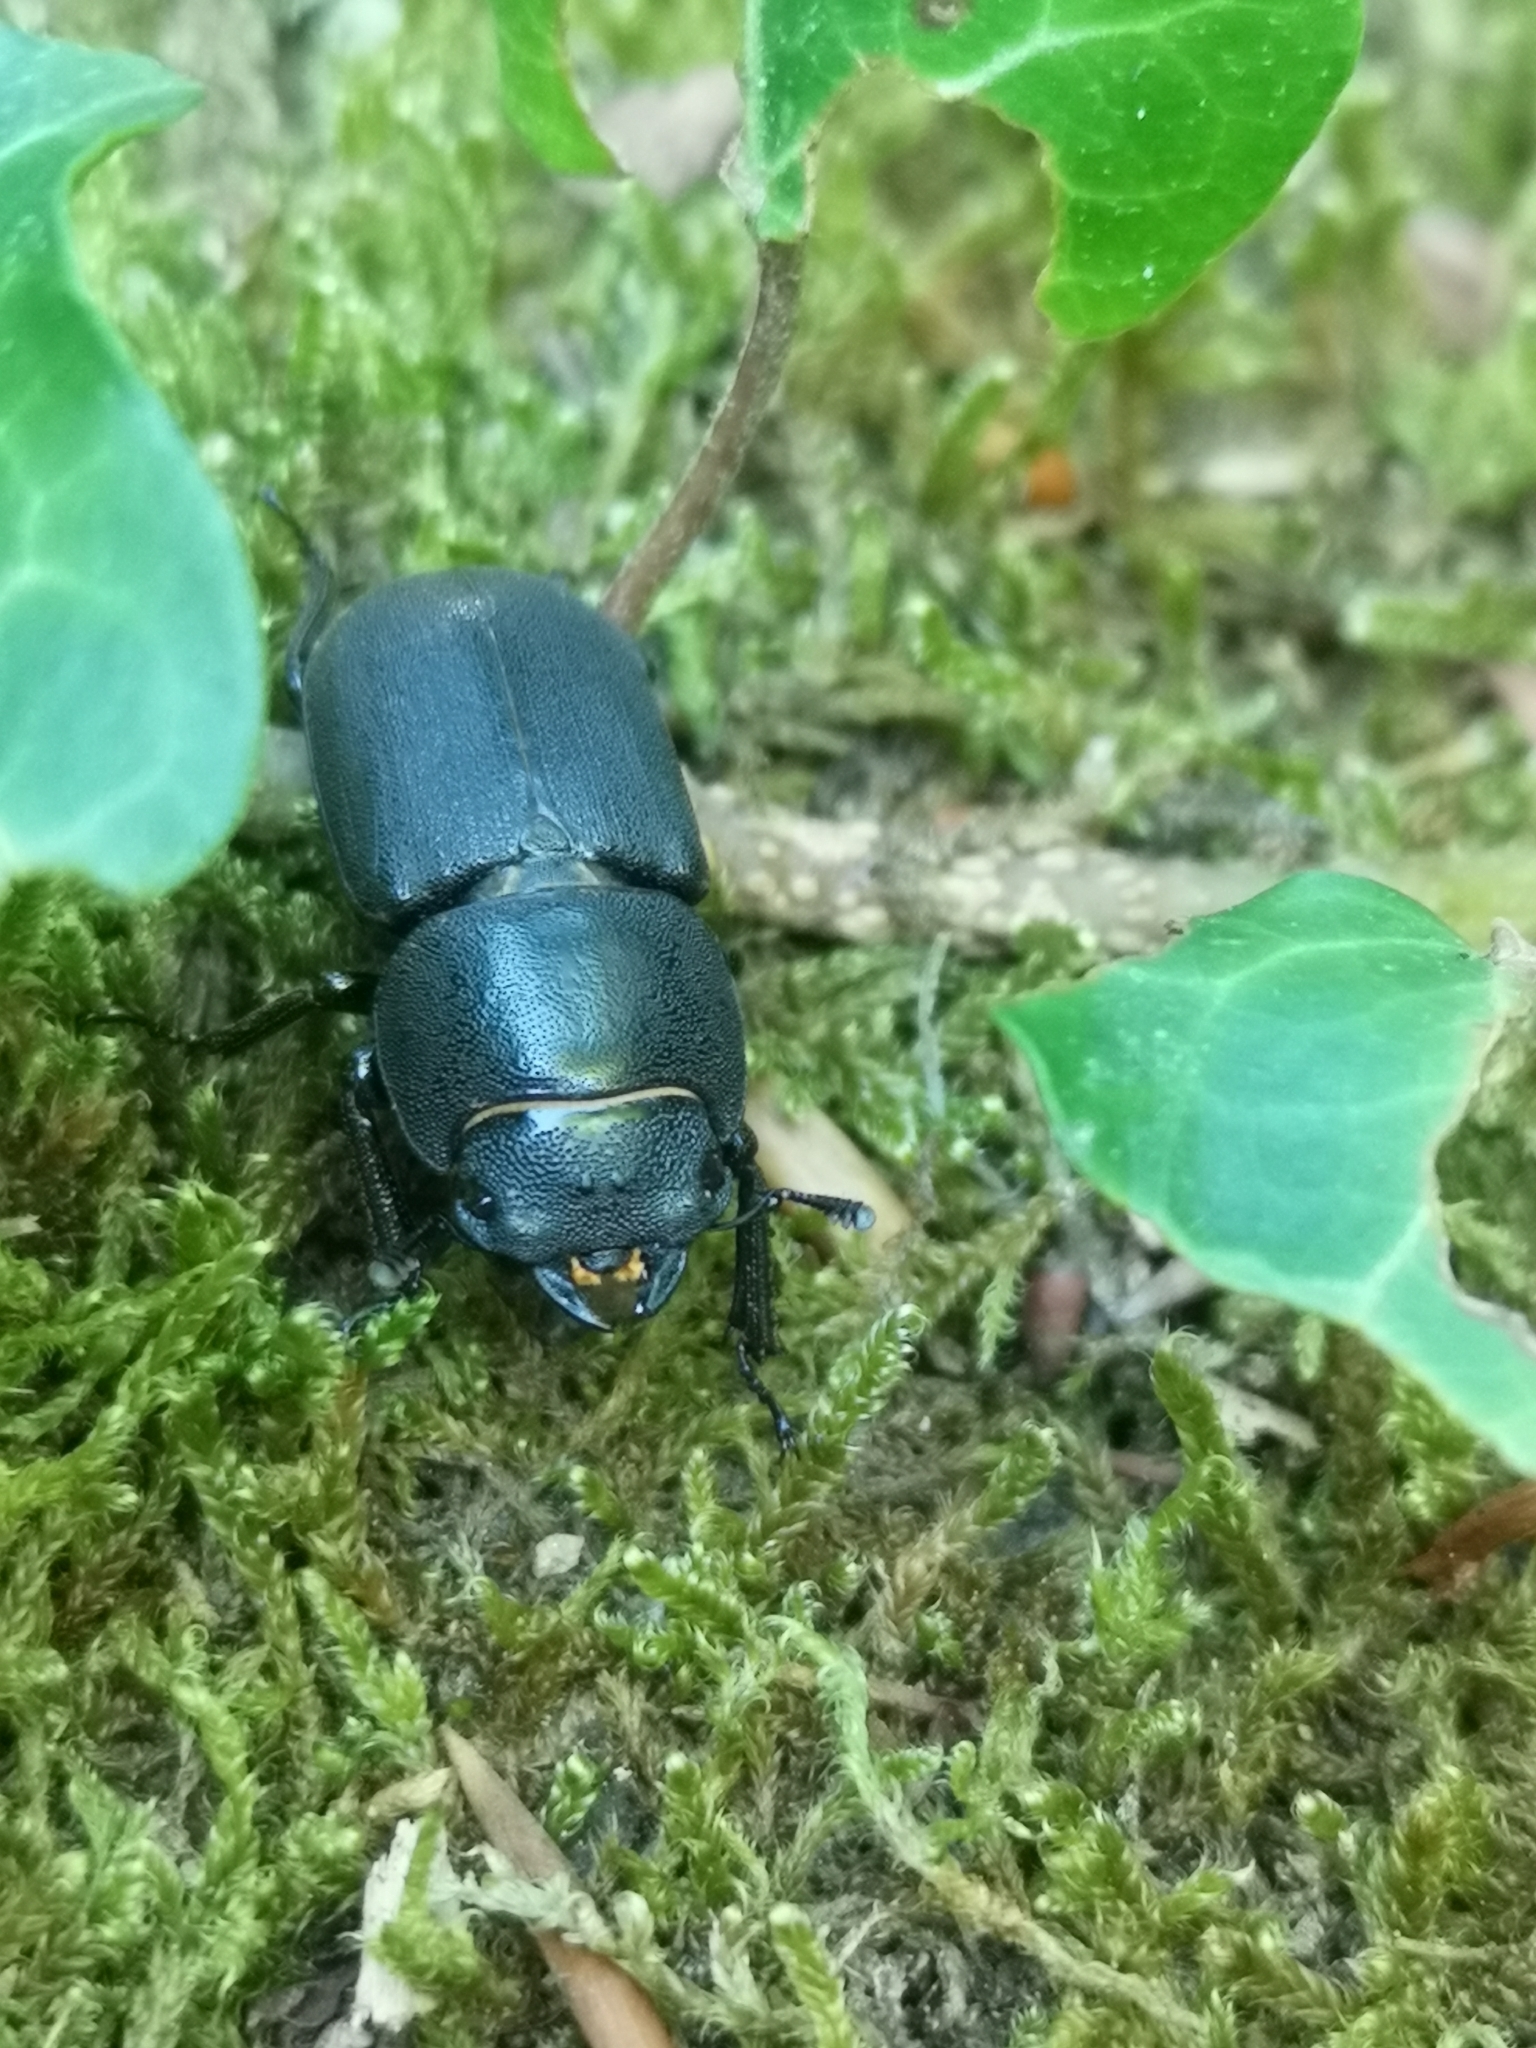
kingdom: Animalia
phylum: Arthropoda
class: Insecta
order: Coleoptera
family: Lucanidae
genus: Dorcus
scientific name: Dorcus parallelipipedus
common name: Lesser stag beetle
